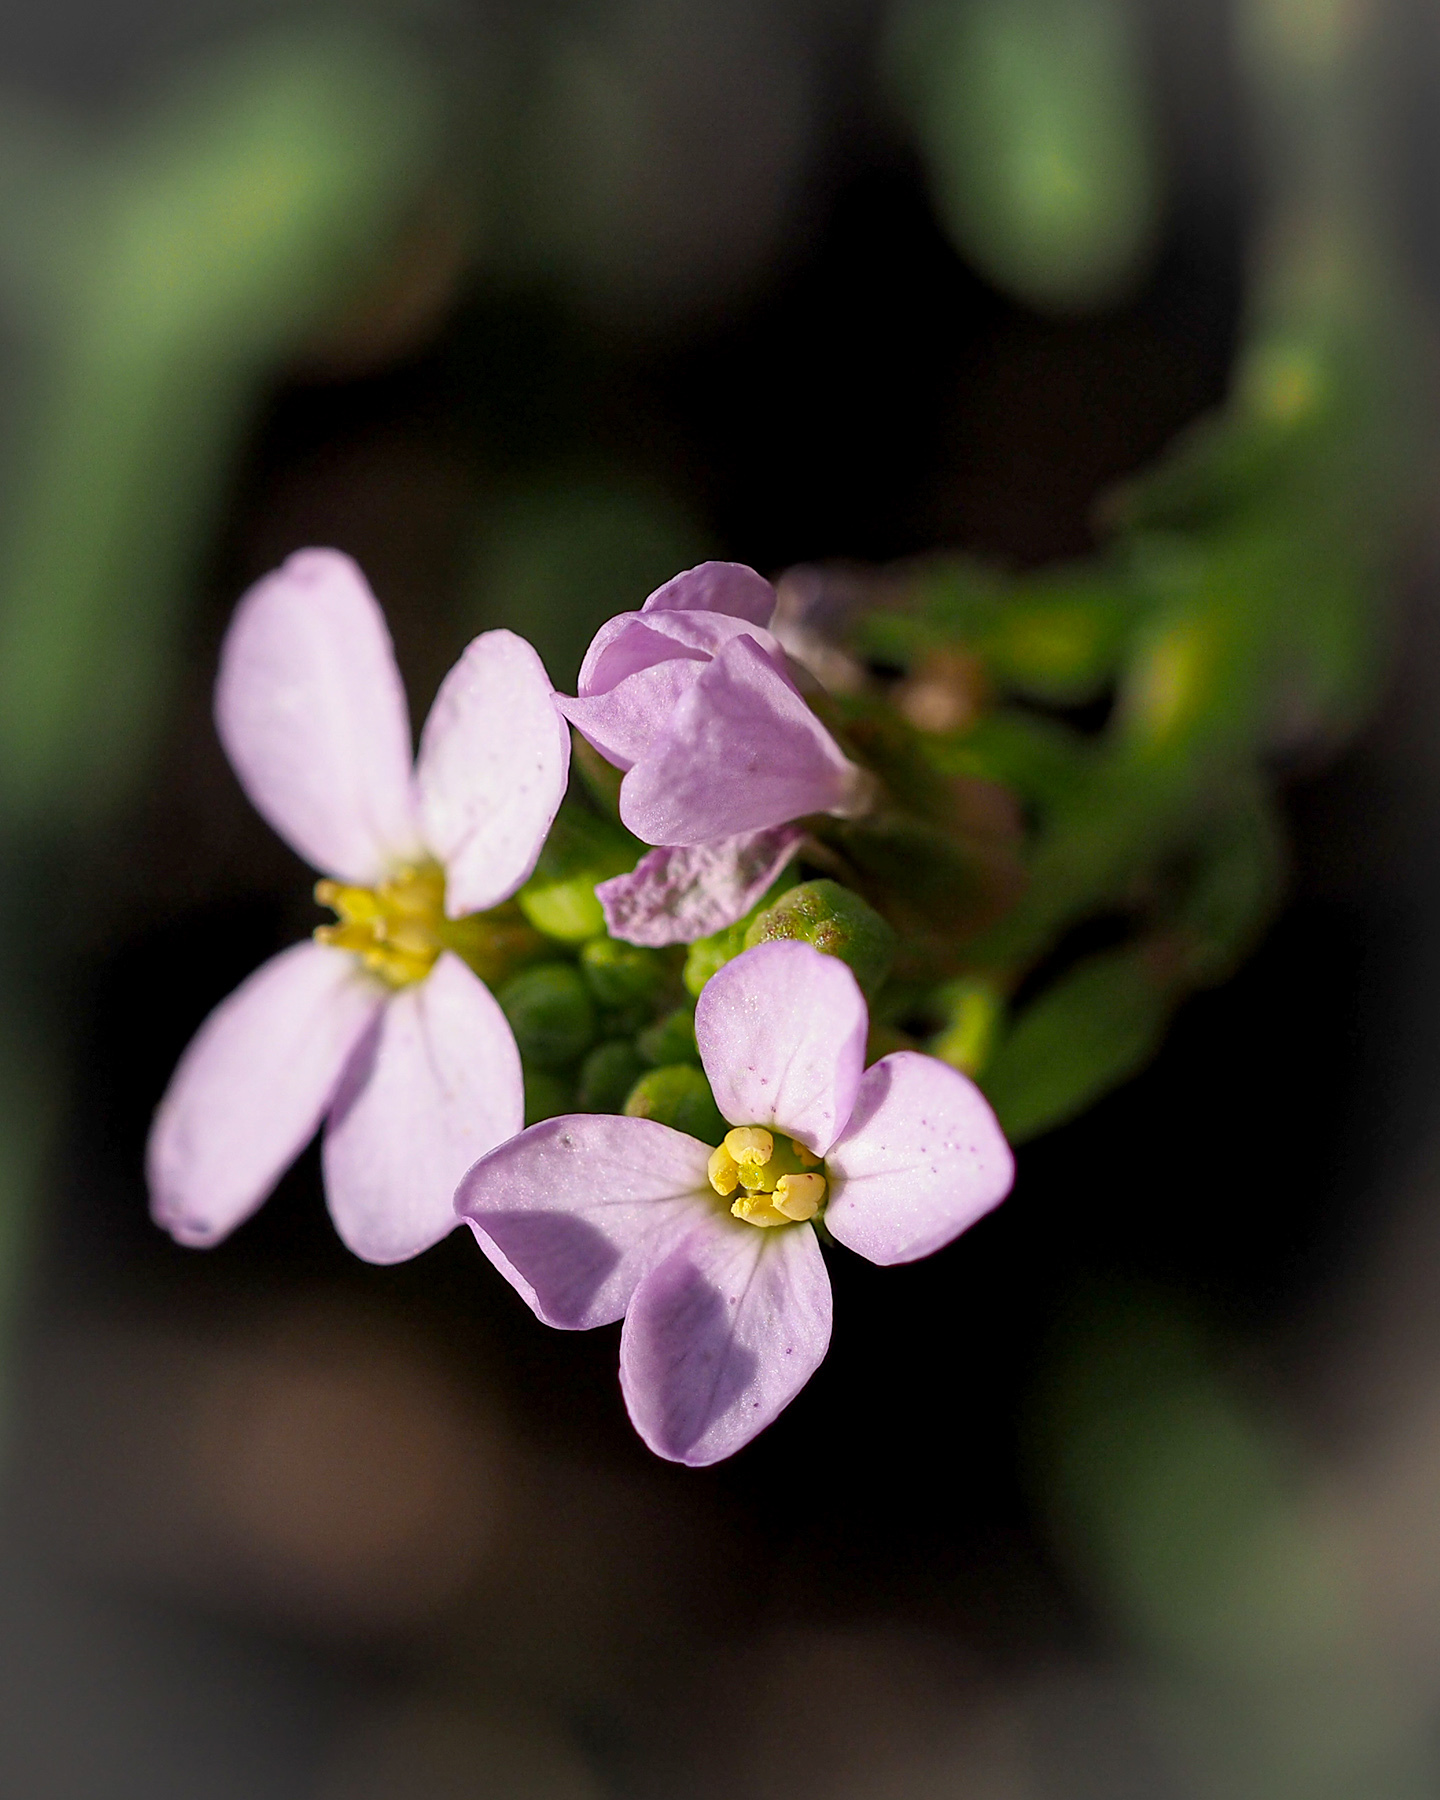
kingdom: Plantae
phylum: Tracheophyta
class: Magnoliopsida
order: Brassicales
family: Brassicaceae
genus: Cakile
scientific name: Cakile maritima
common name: Sea rocket
